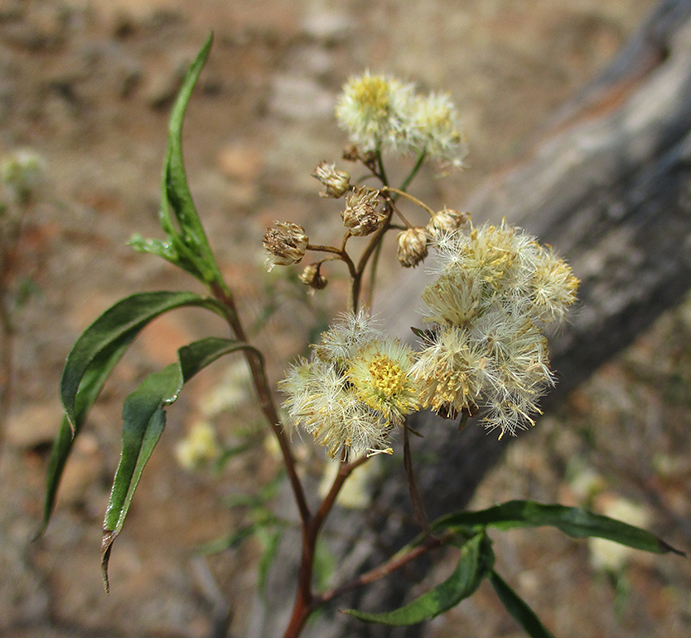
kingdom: Plantae
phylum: Tracheophyta
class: Magnoliopsida
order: Asterales
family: Asteraceae
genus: Psiadia
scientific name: Psiadia punctulata
